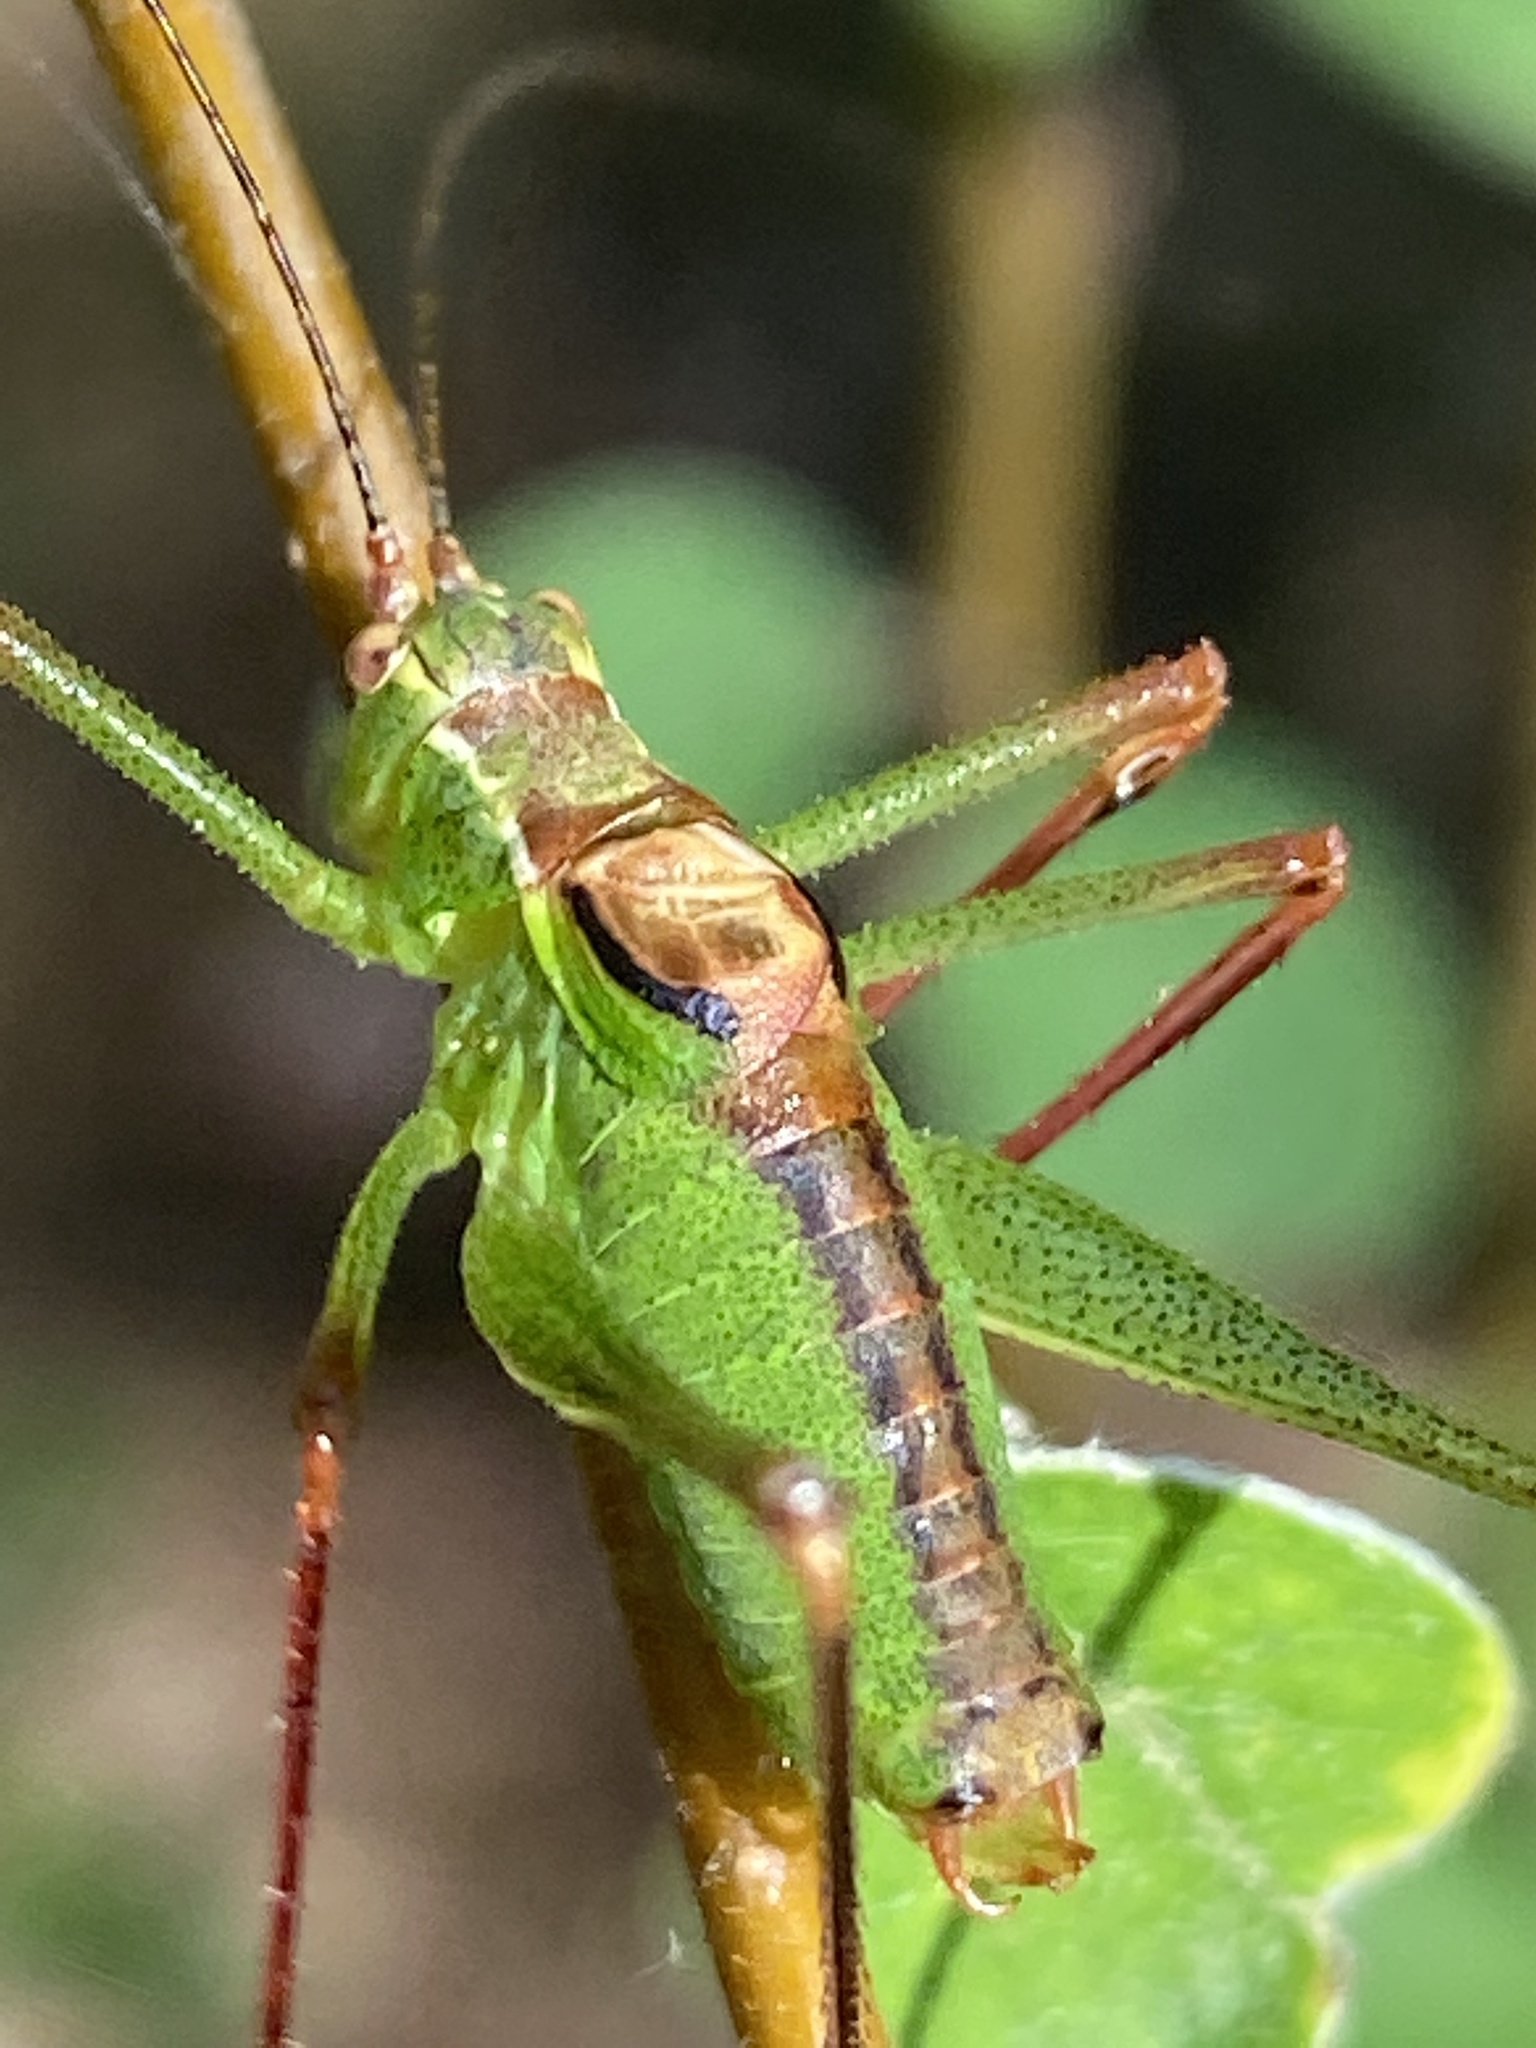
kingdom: Animalia
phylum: Arthropoda
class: Insecta
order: Orthoptera
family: Tettigoniidae
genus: Leptophyes
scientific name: Leptophyes punctatissima
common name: Speckled bush-cricket
